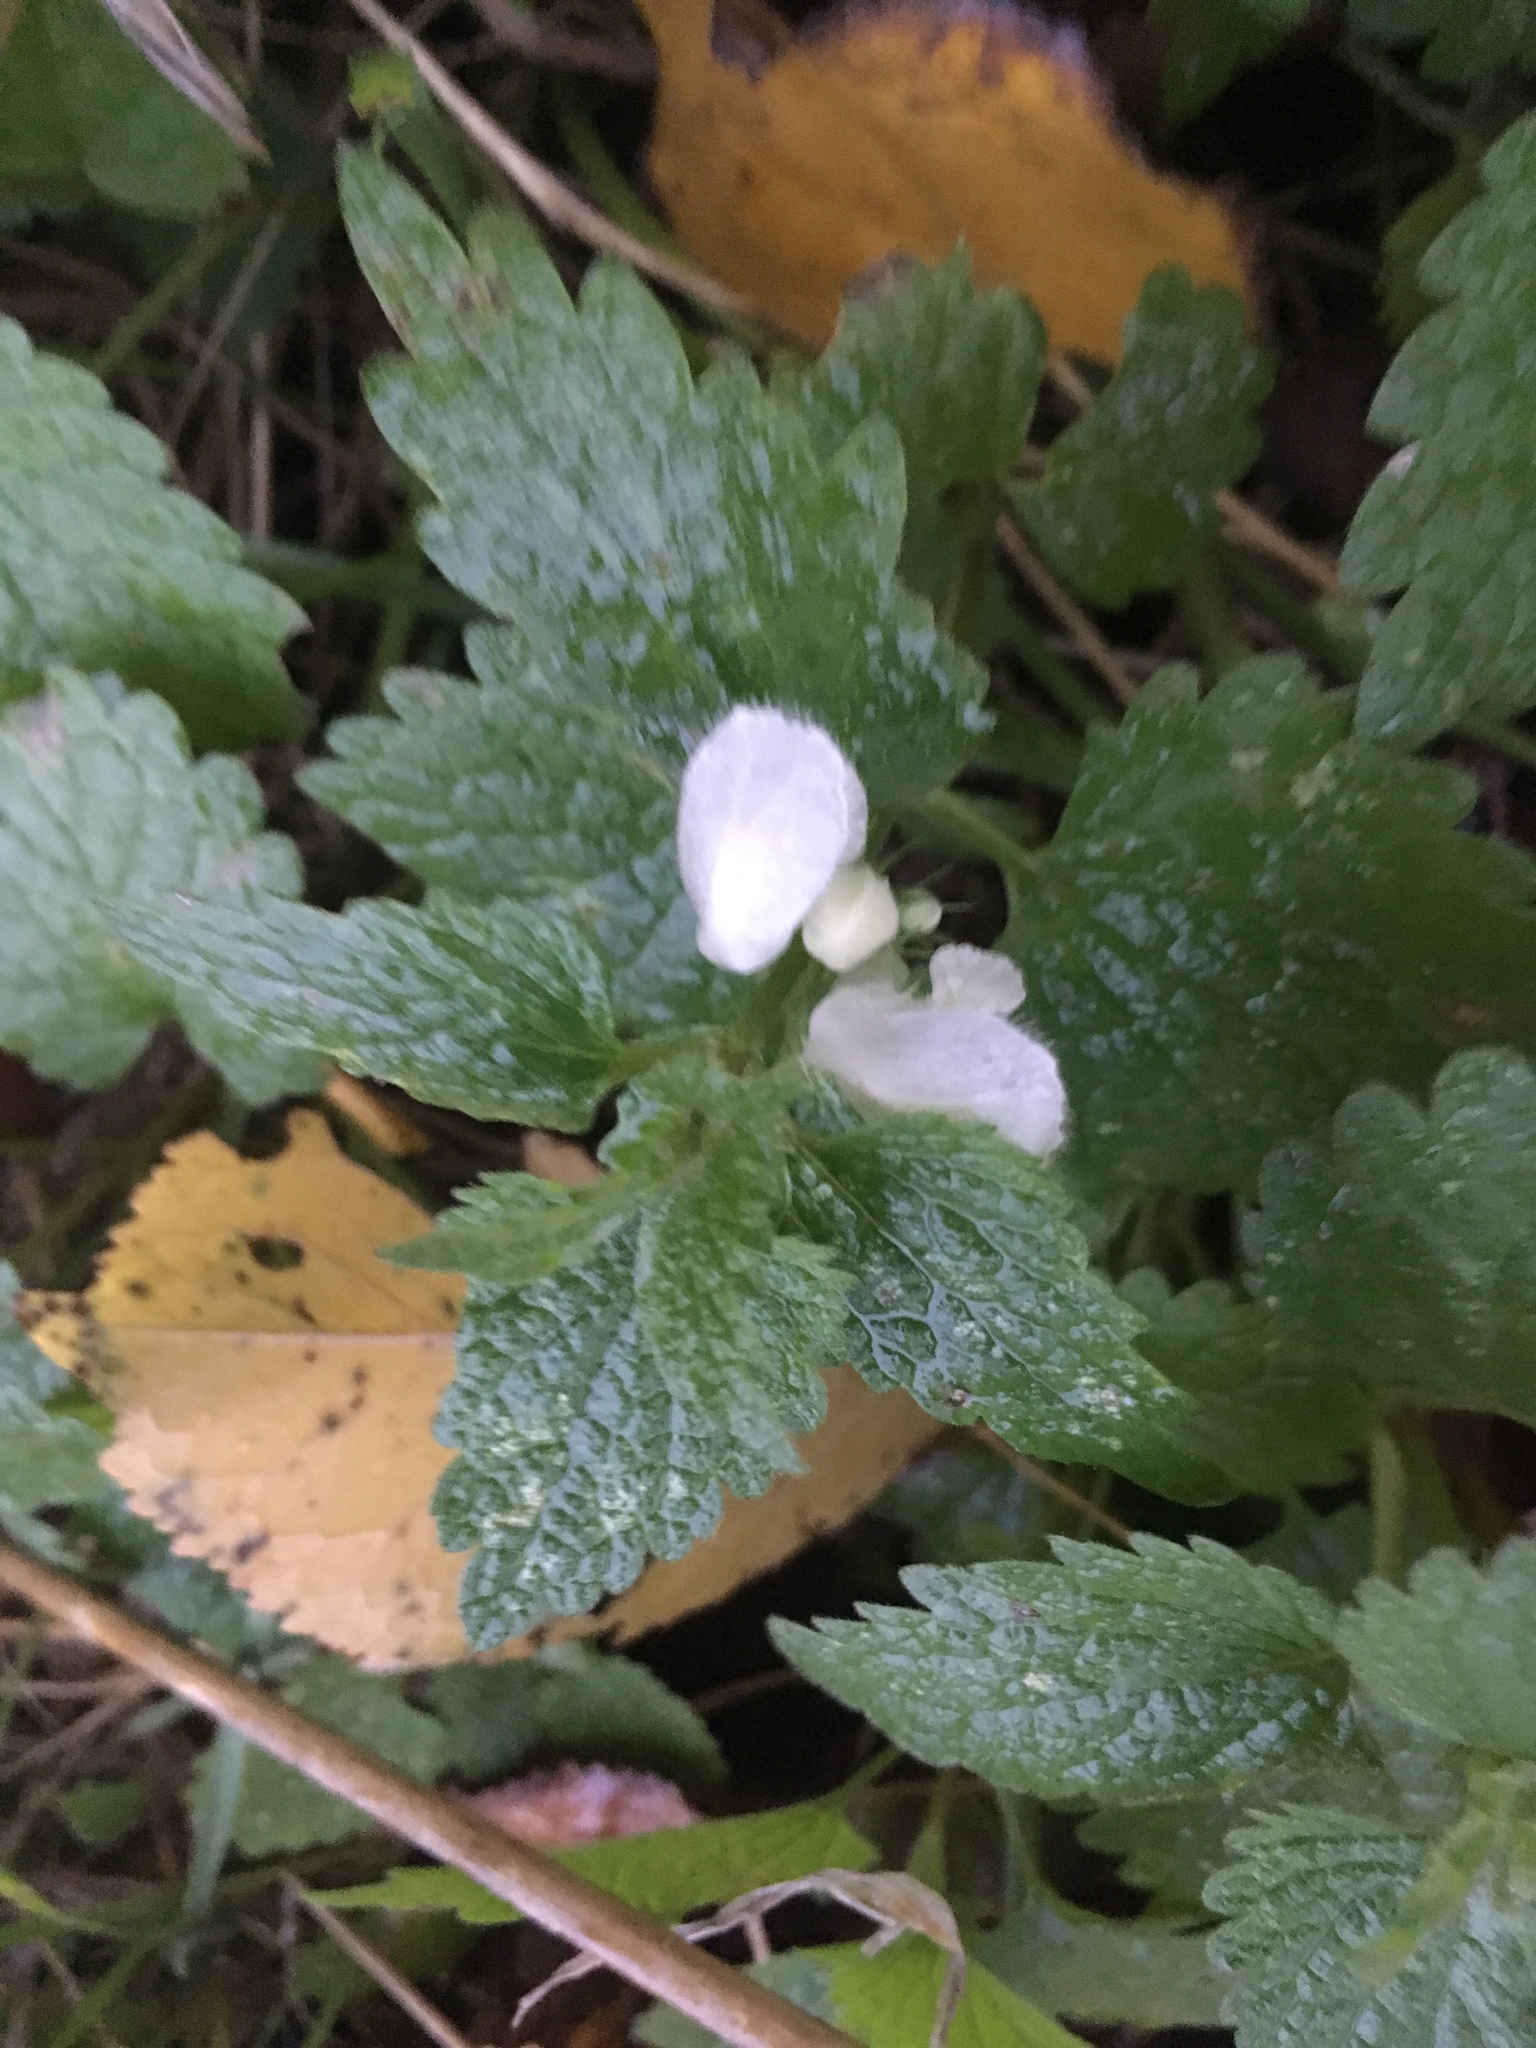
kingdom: Plantae
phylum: Tracheophyta
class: Magnoliopsida
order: Lamiales
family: Lamiaceae
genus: Lamium
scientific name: Lamium album
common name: White dead-nettle
